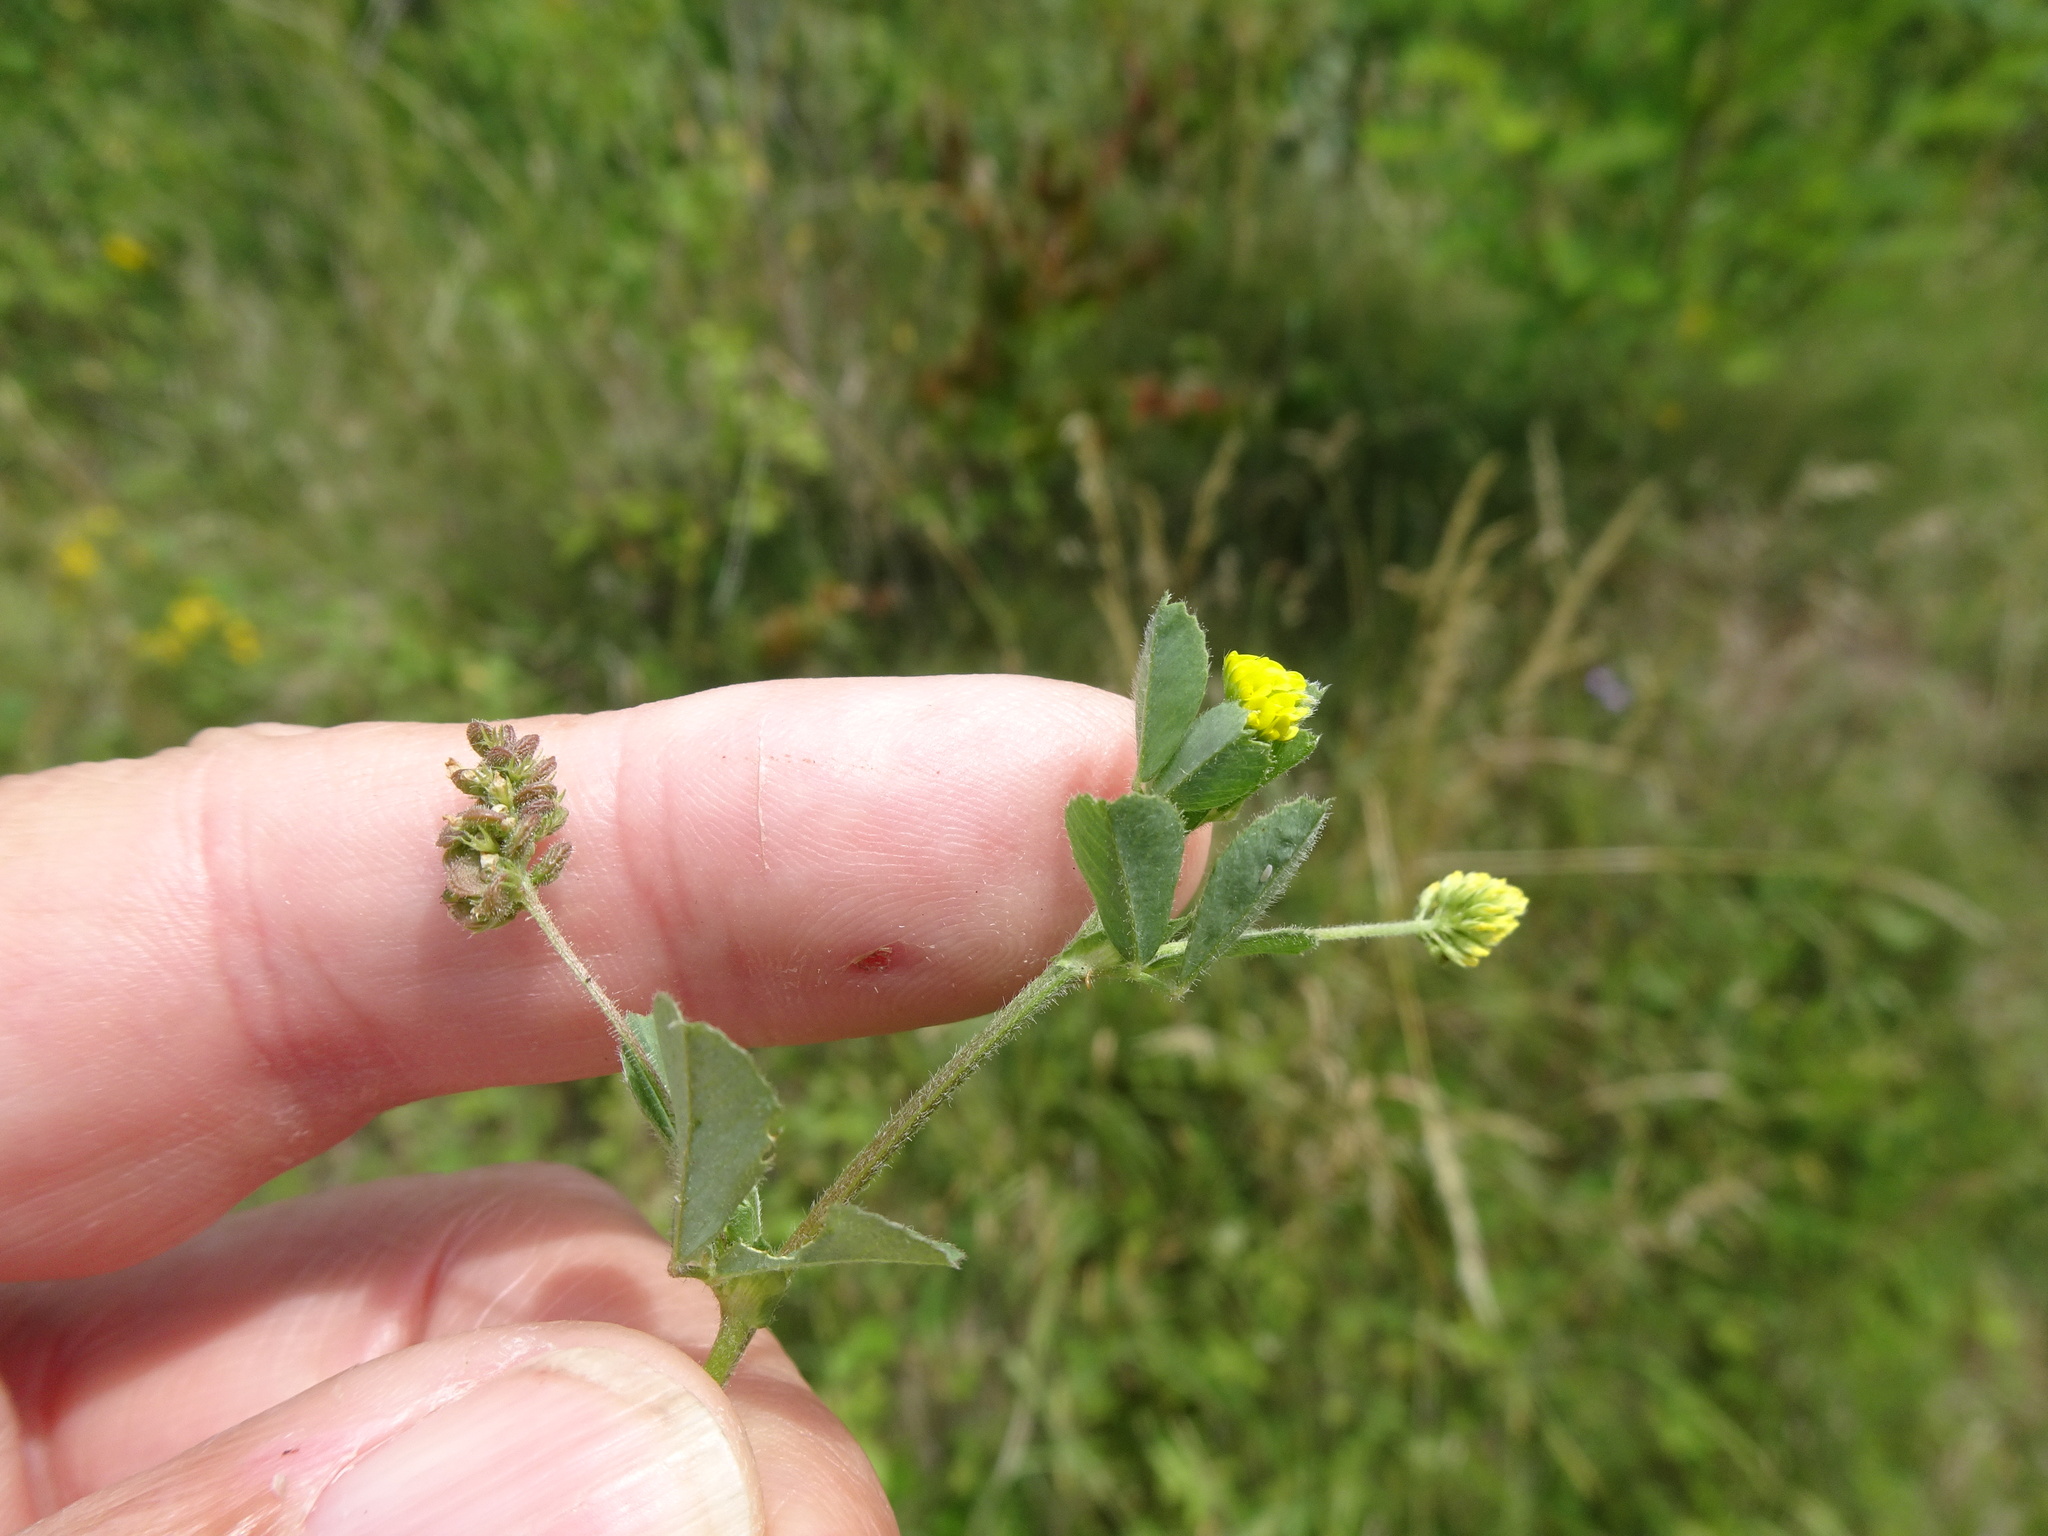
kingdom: Plantae
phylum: Tracheophyta
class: Magnoliopsida
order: Fabales
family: Fabaceae
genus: Medicago
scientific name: Medicago lupulina
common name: Black medick
